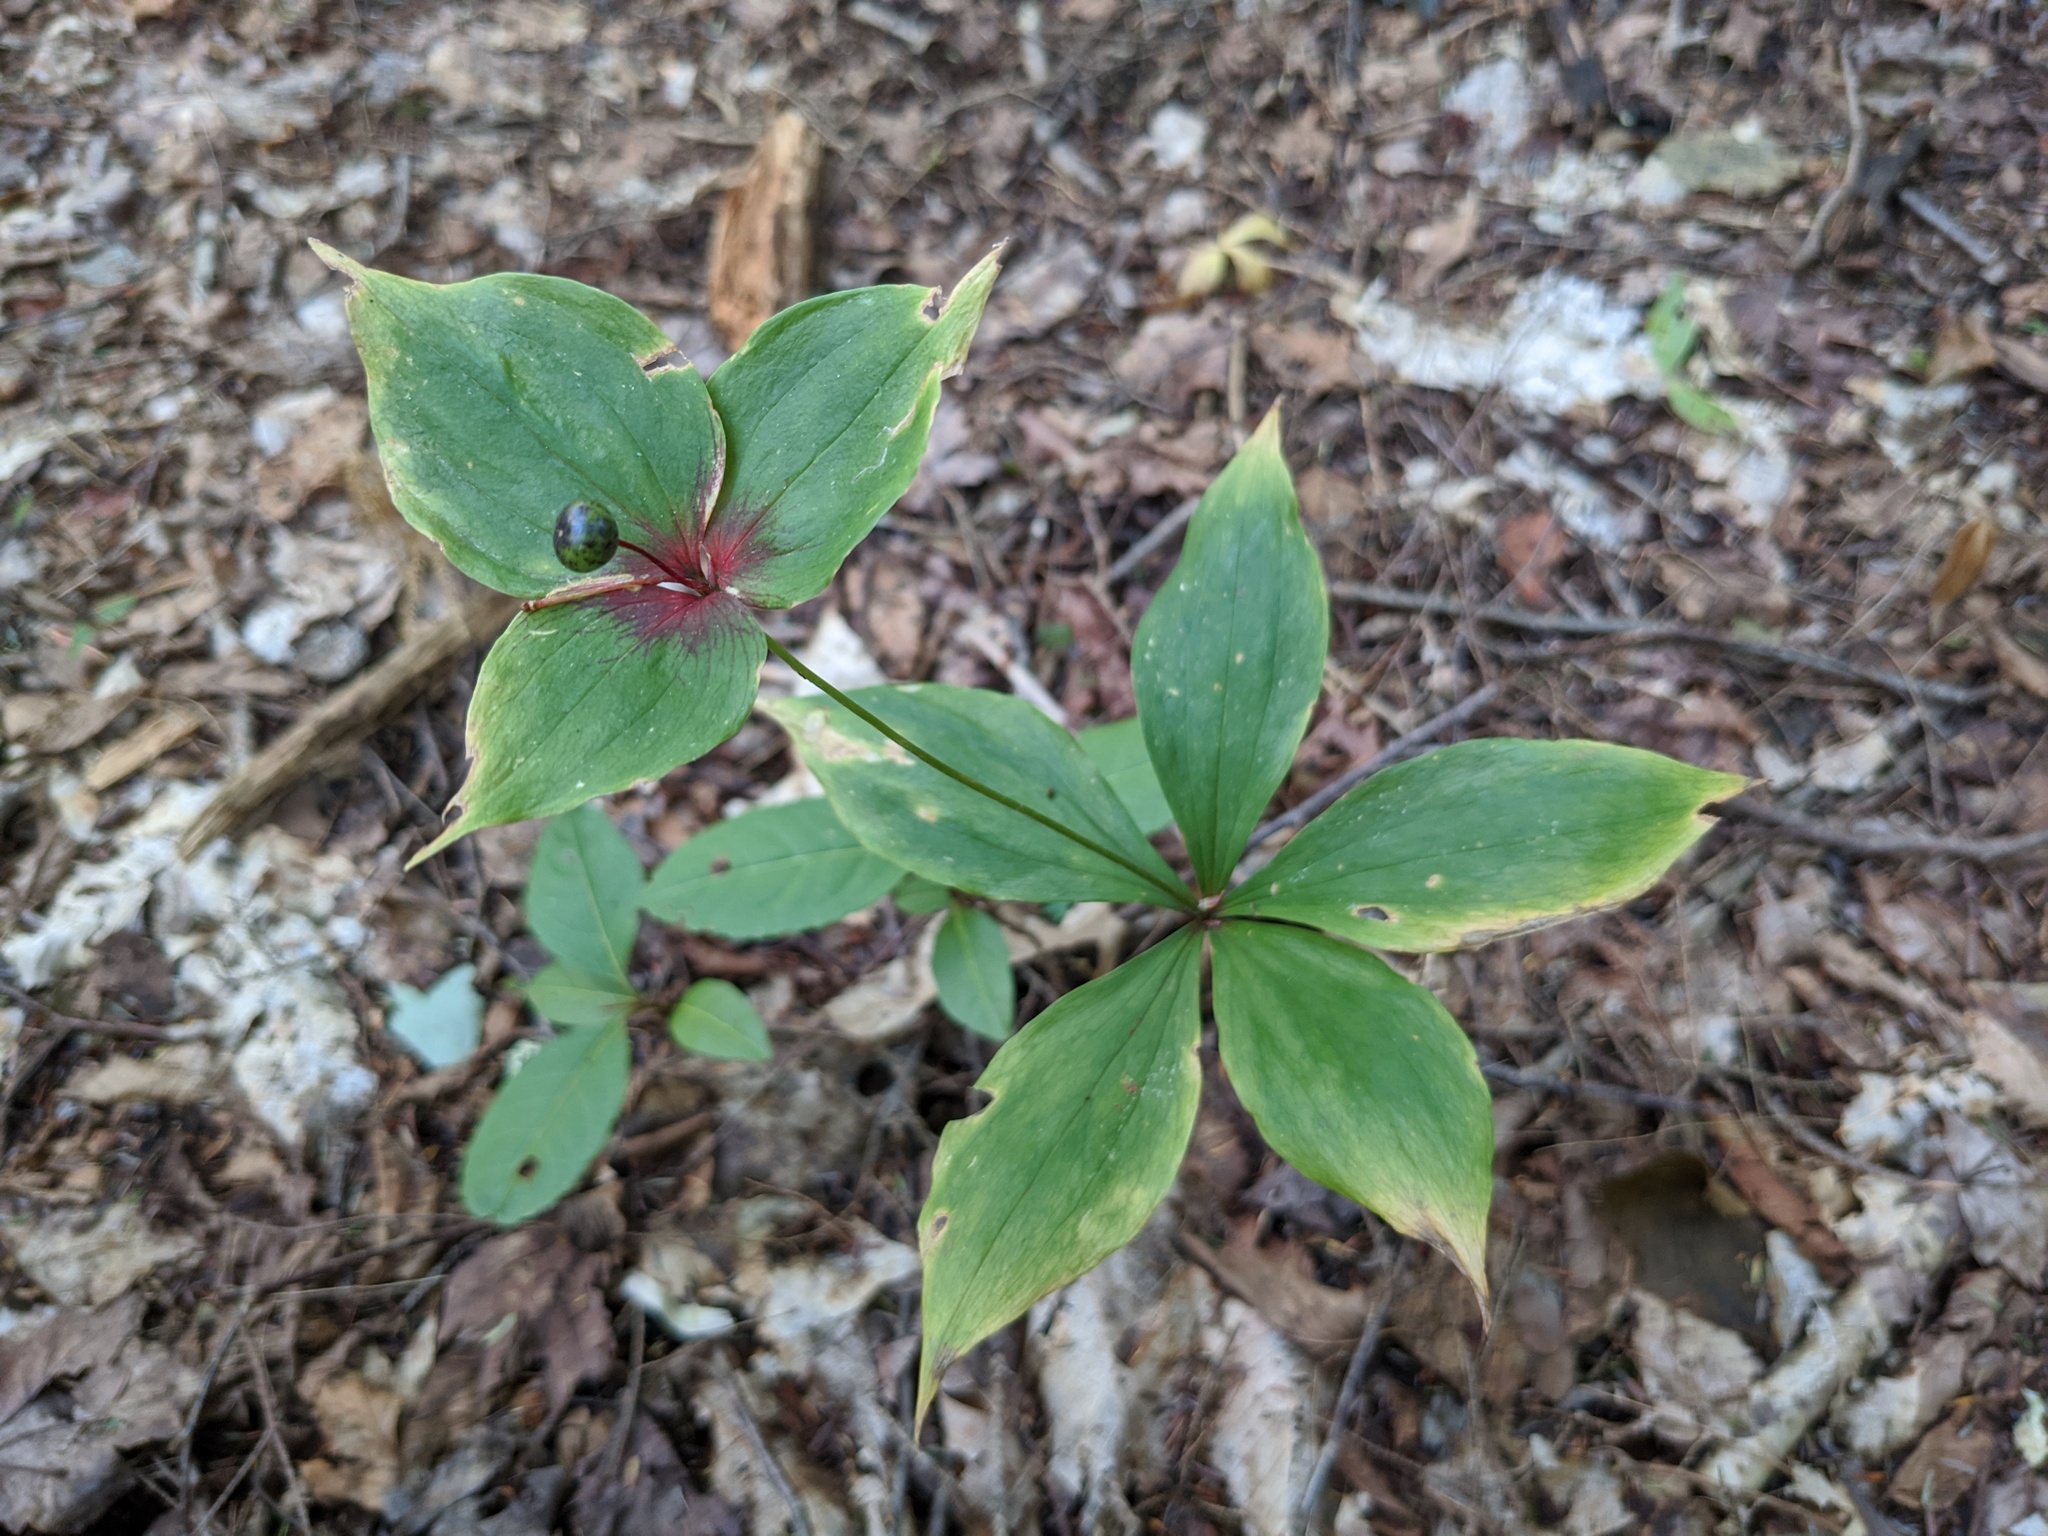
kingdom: Plantae
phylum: Tracheophyta
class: Liliopsida
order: Liliales
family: Liliaceae
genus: Medeola
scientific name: Medeola virginiana
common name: Indian cucumber-root
